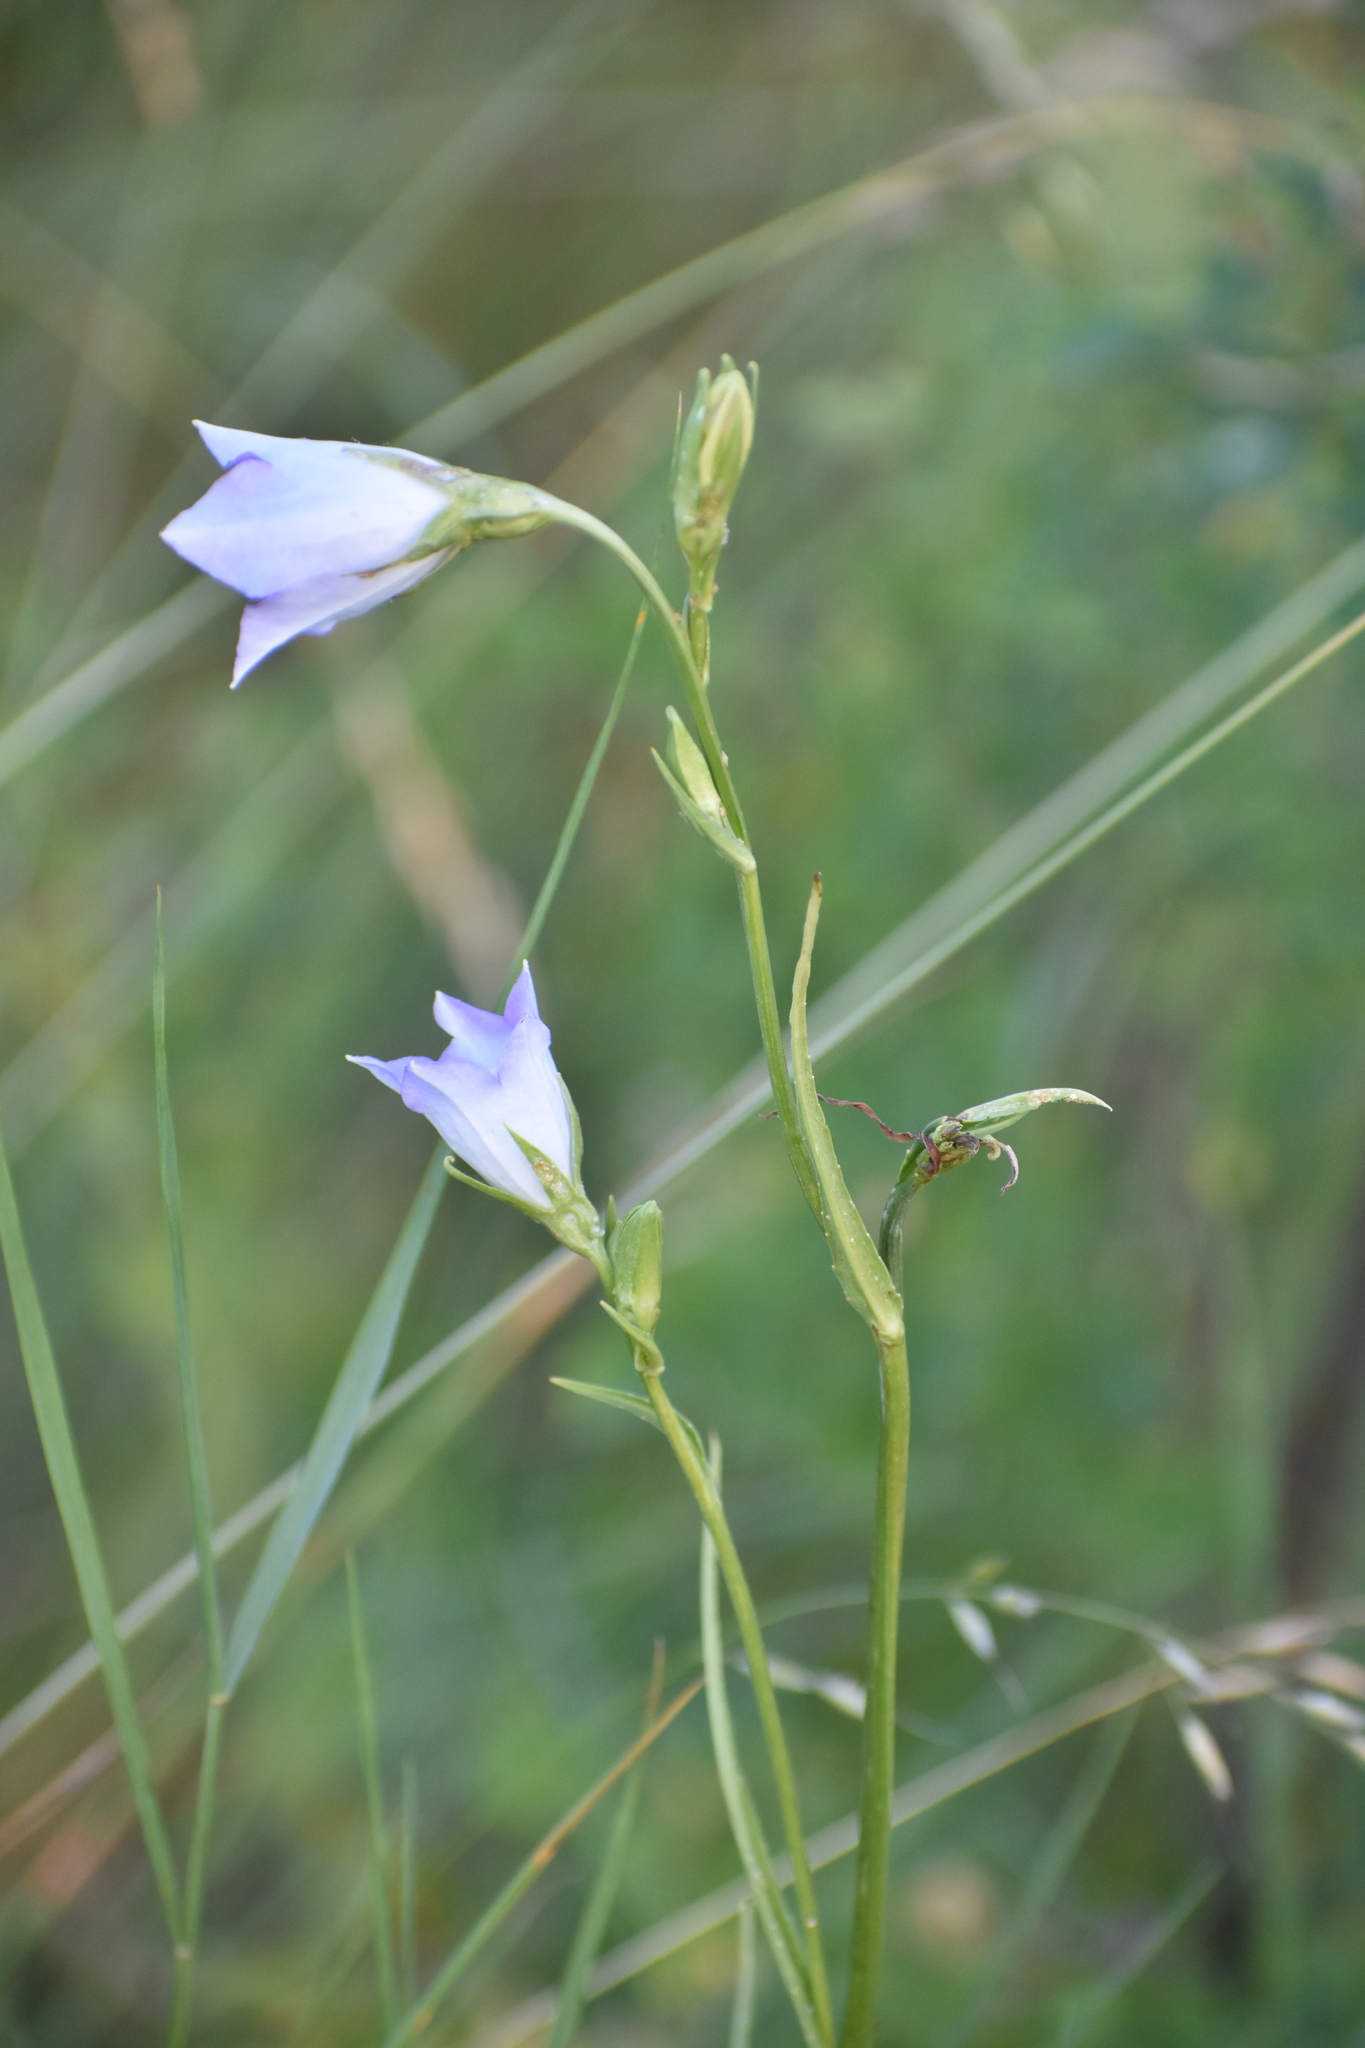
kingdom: Plantae
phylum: Tracheophyta
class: Magnoliopsida
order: Asterales
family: Campanulaceae
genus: Campanula
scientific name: Campanula persicifolia
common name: Peach-leaved bellflower
